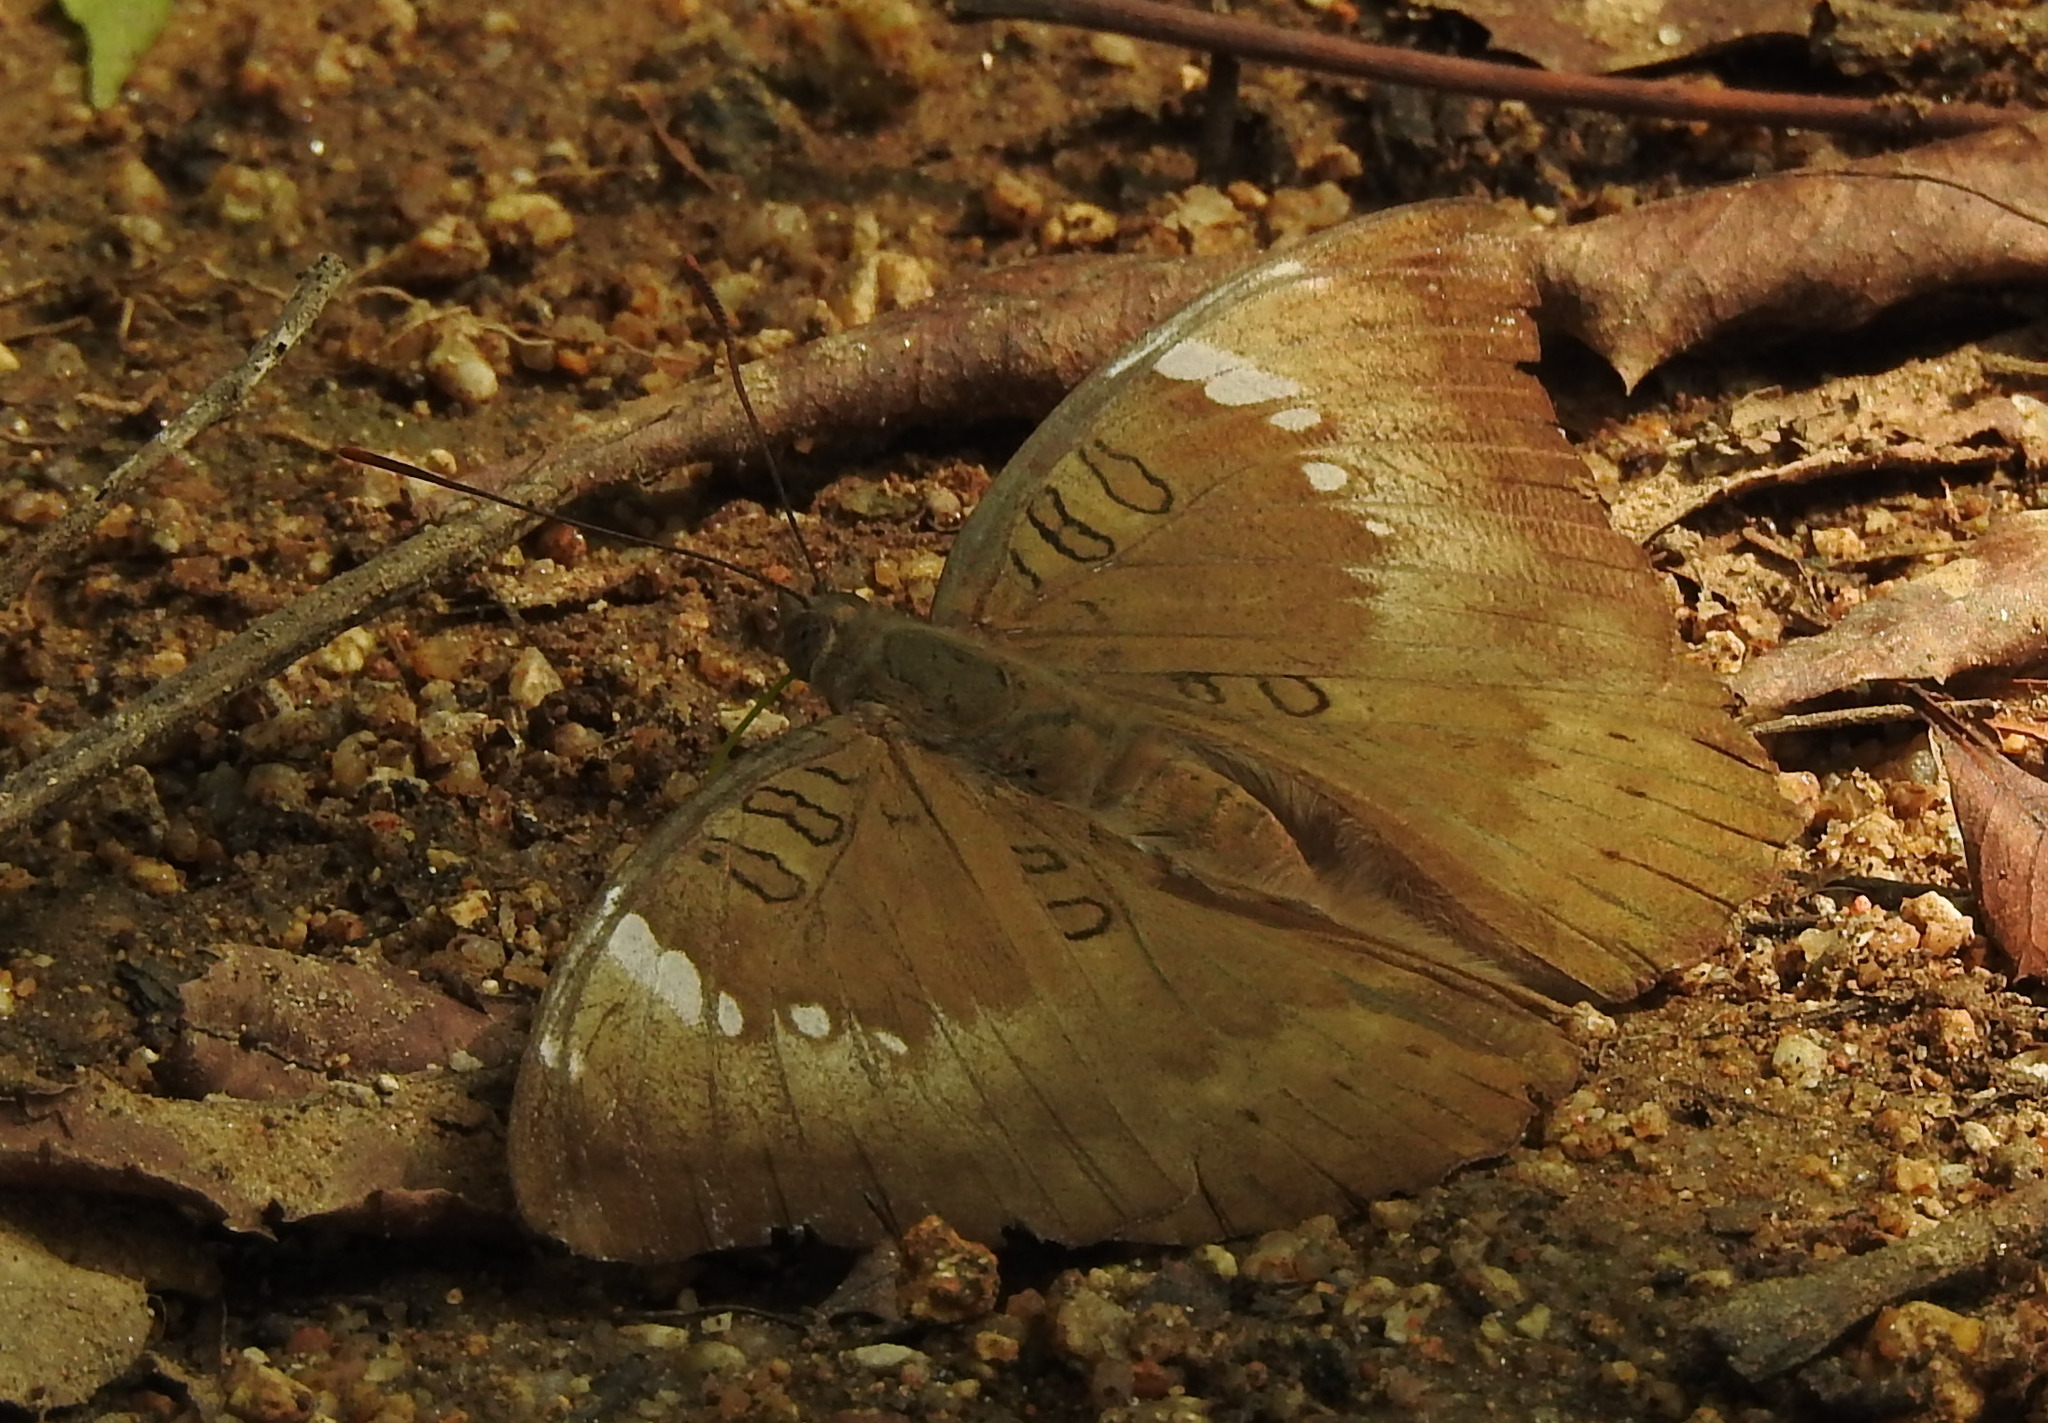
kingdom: Animalia
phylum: Arthropoda
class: Insecta
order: Lepidoptera
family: Nymphalidae
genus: Euthalia
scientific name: Euthalia aconthea
